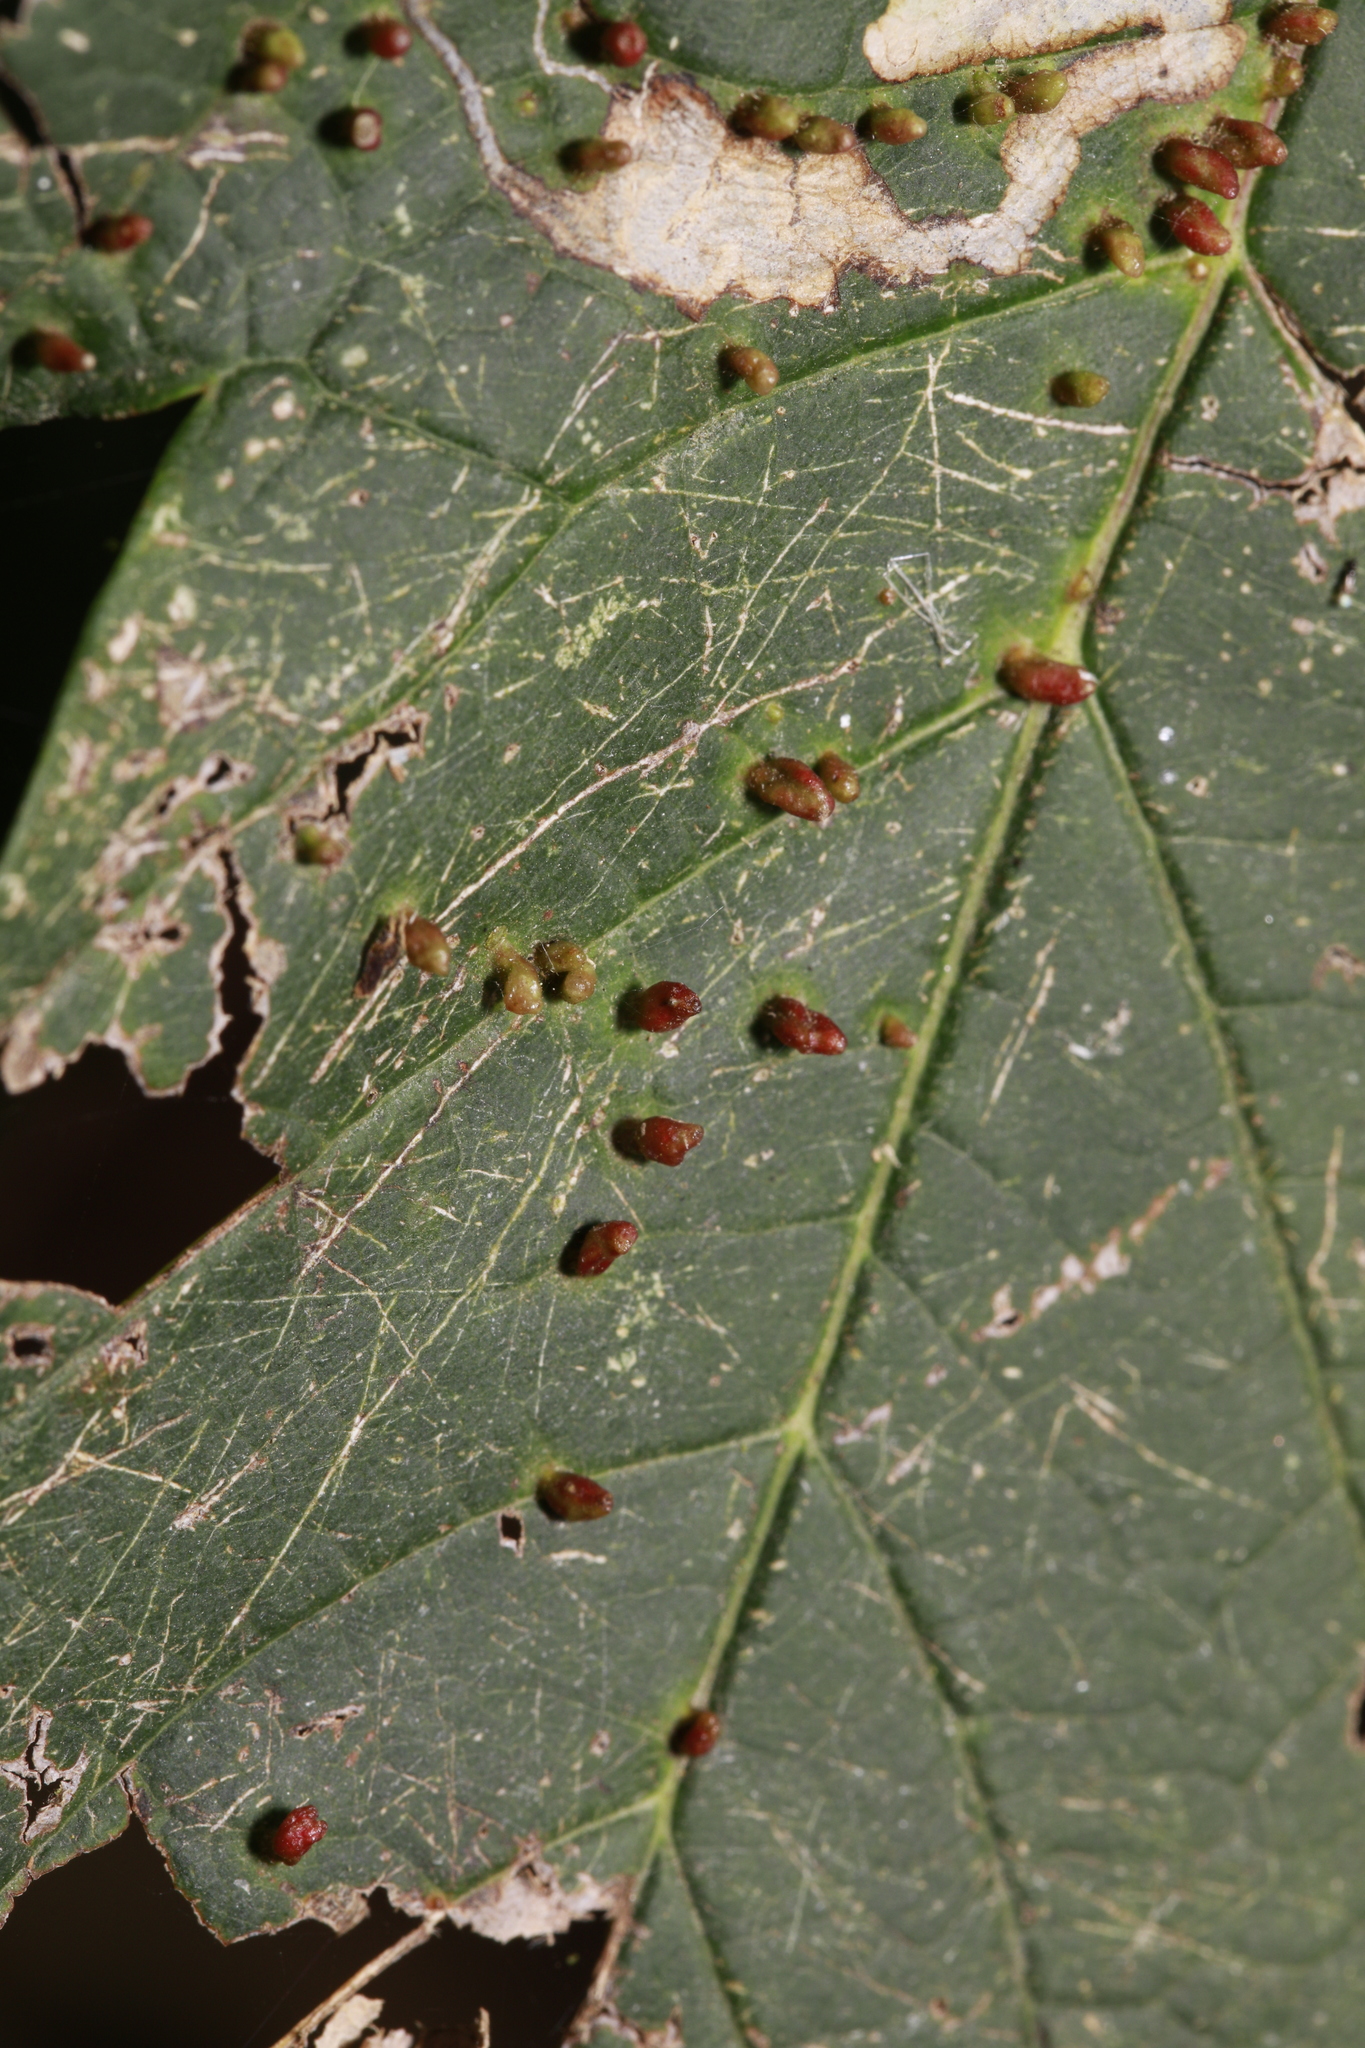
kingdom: Animalia
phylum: Arthropoda
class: Arachnida
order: Trombidiformes
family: Eriophyidae
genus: Aceria
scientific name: Aceria cephaloneus
